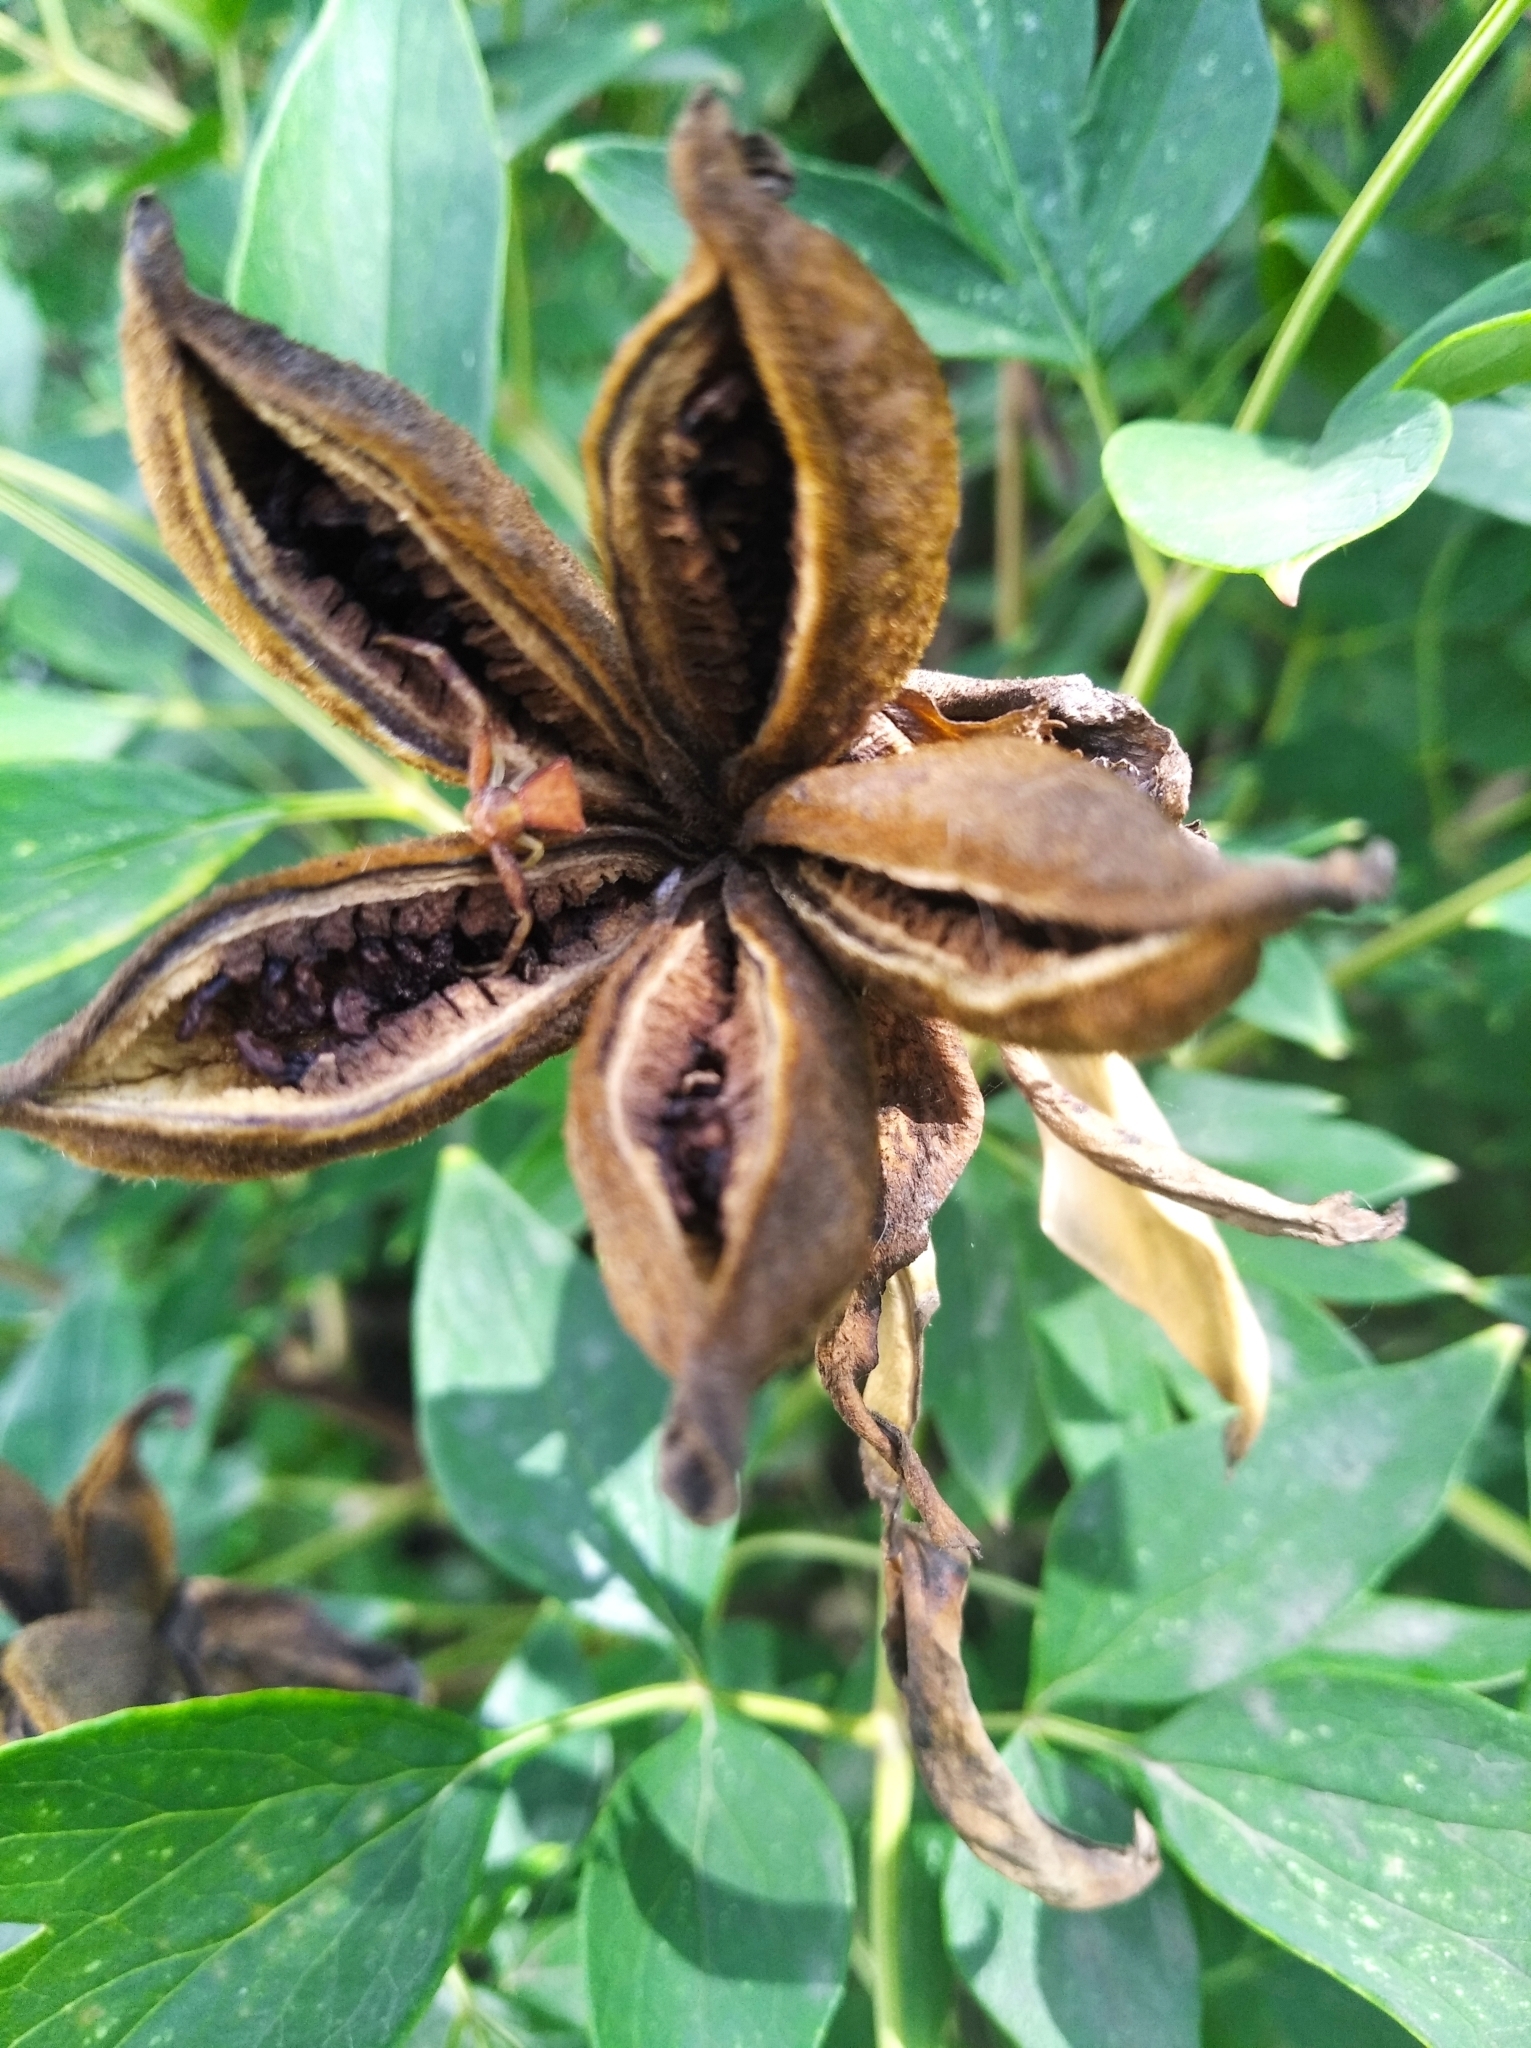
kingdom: Animalia
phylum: Arthropoda
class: Arachnida
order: Araneae
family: Thomisidae
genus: Pistius
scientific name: Pistius truncatus
